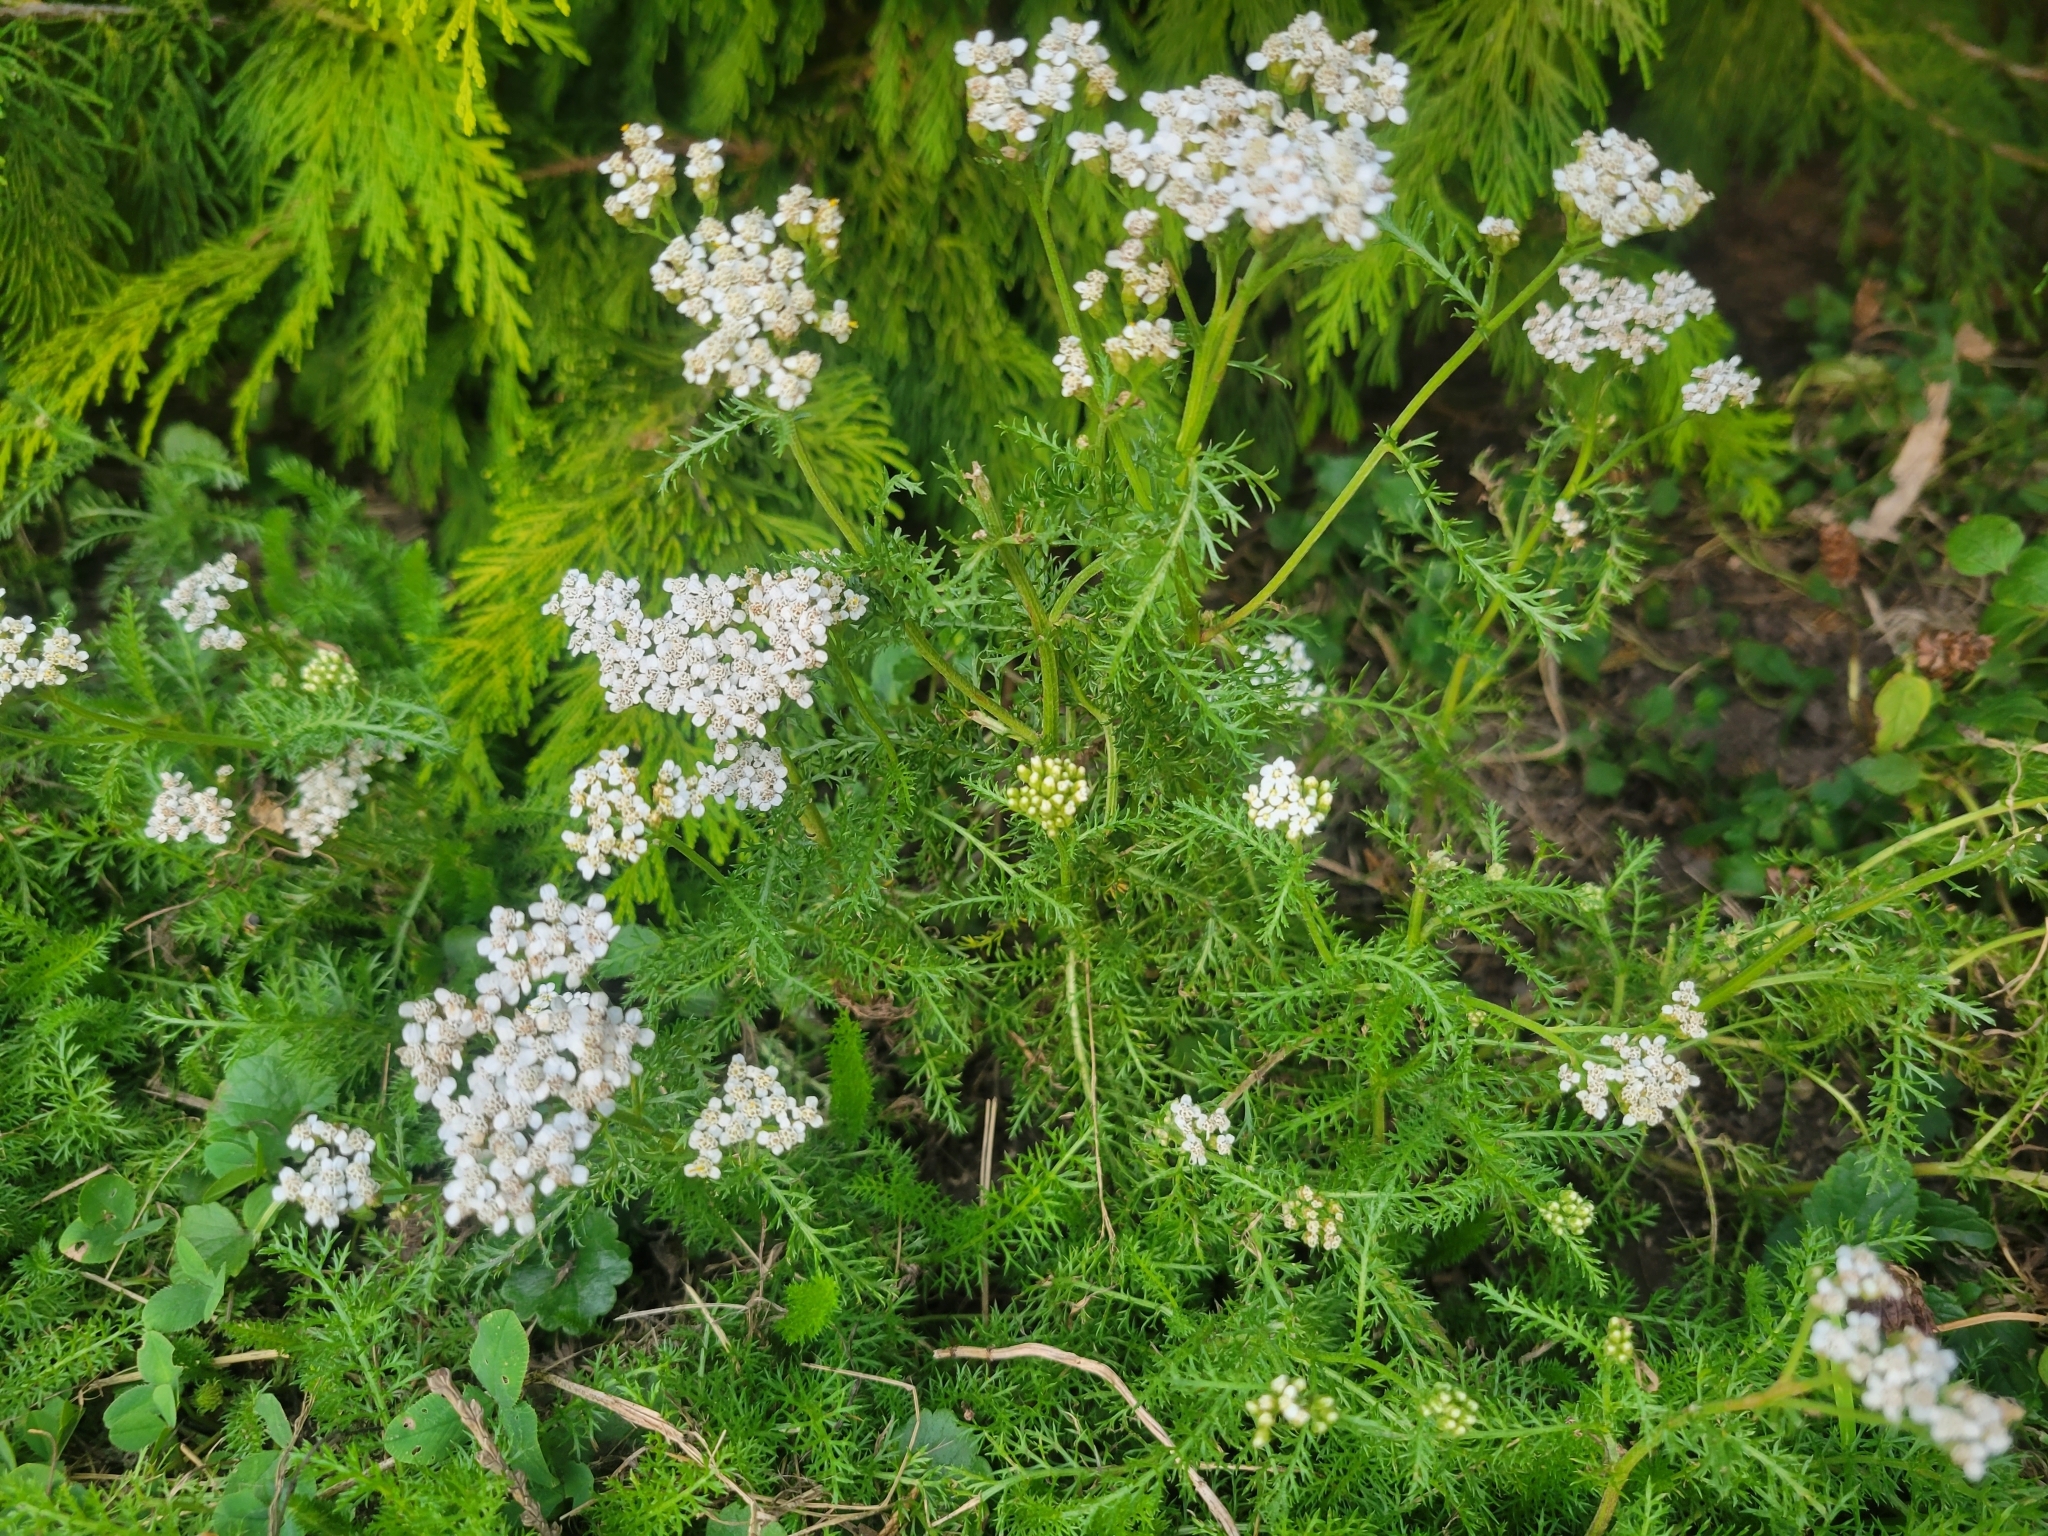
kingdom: Plantae
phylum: Tracheophyta
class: Magnoliopsida
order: Asterales
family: Asteraceae
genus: Achillea
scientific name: Achillea millefolium
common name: Yarrow
